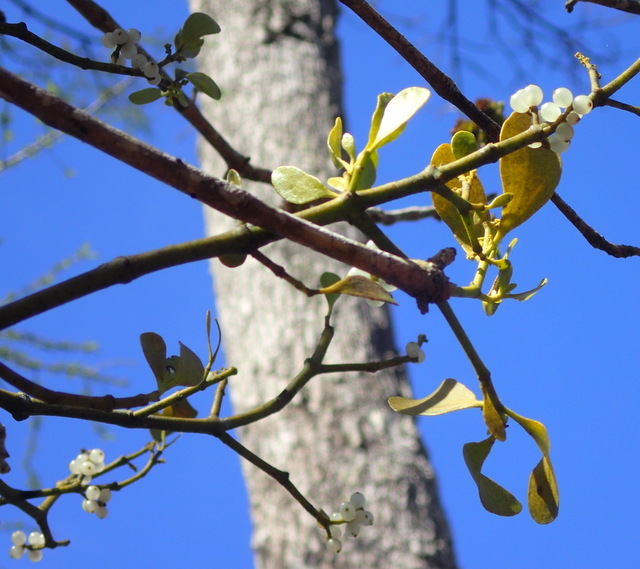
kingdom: Plantae
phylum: Tracheophyta
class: Magnoliopsida
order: Santalales
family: Viscaceae
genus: Phoradendron
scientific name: Phoradendron leucarpum
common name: Pacific mistletoe
